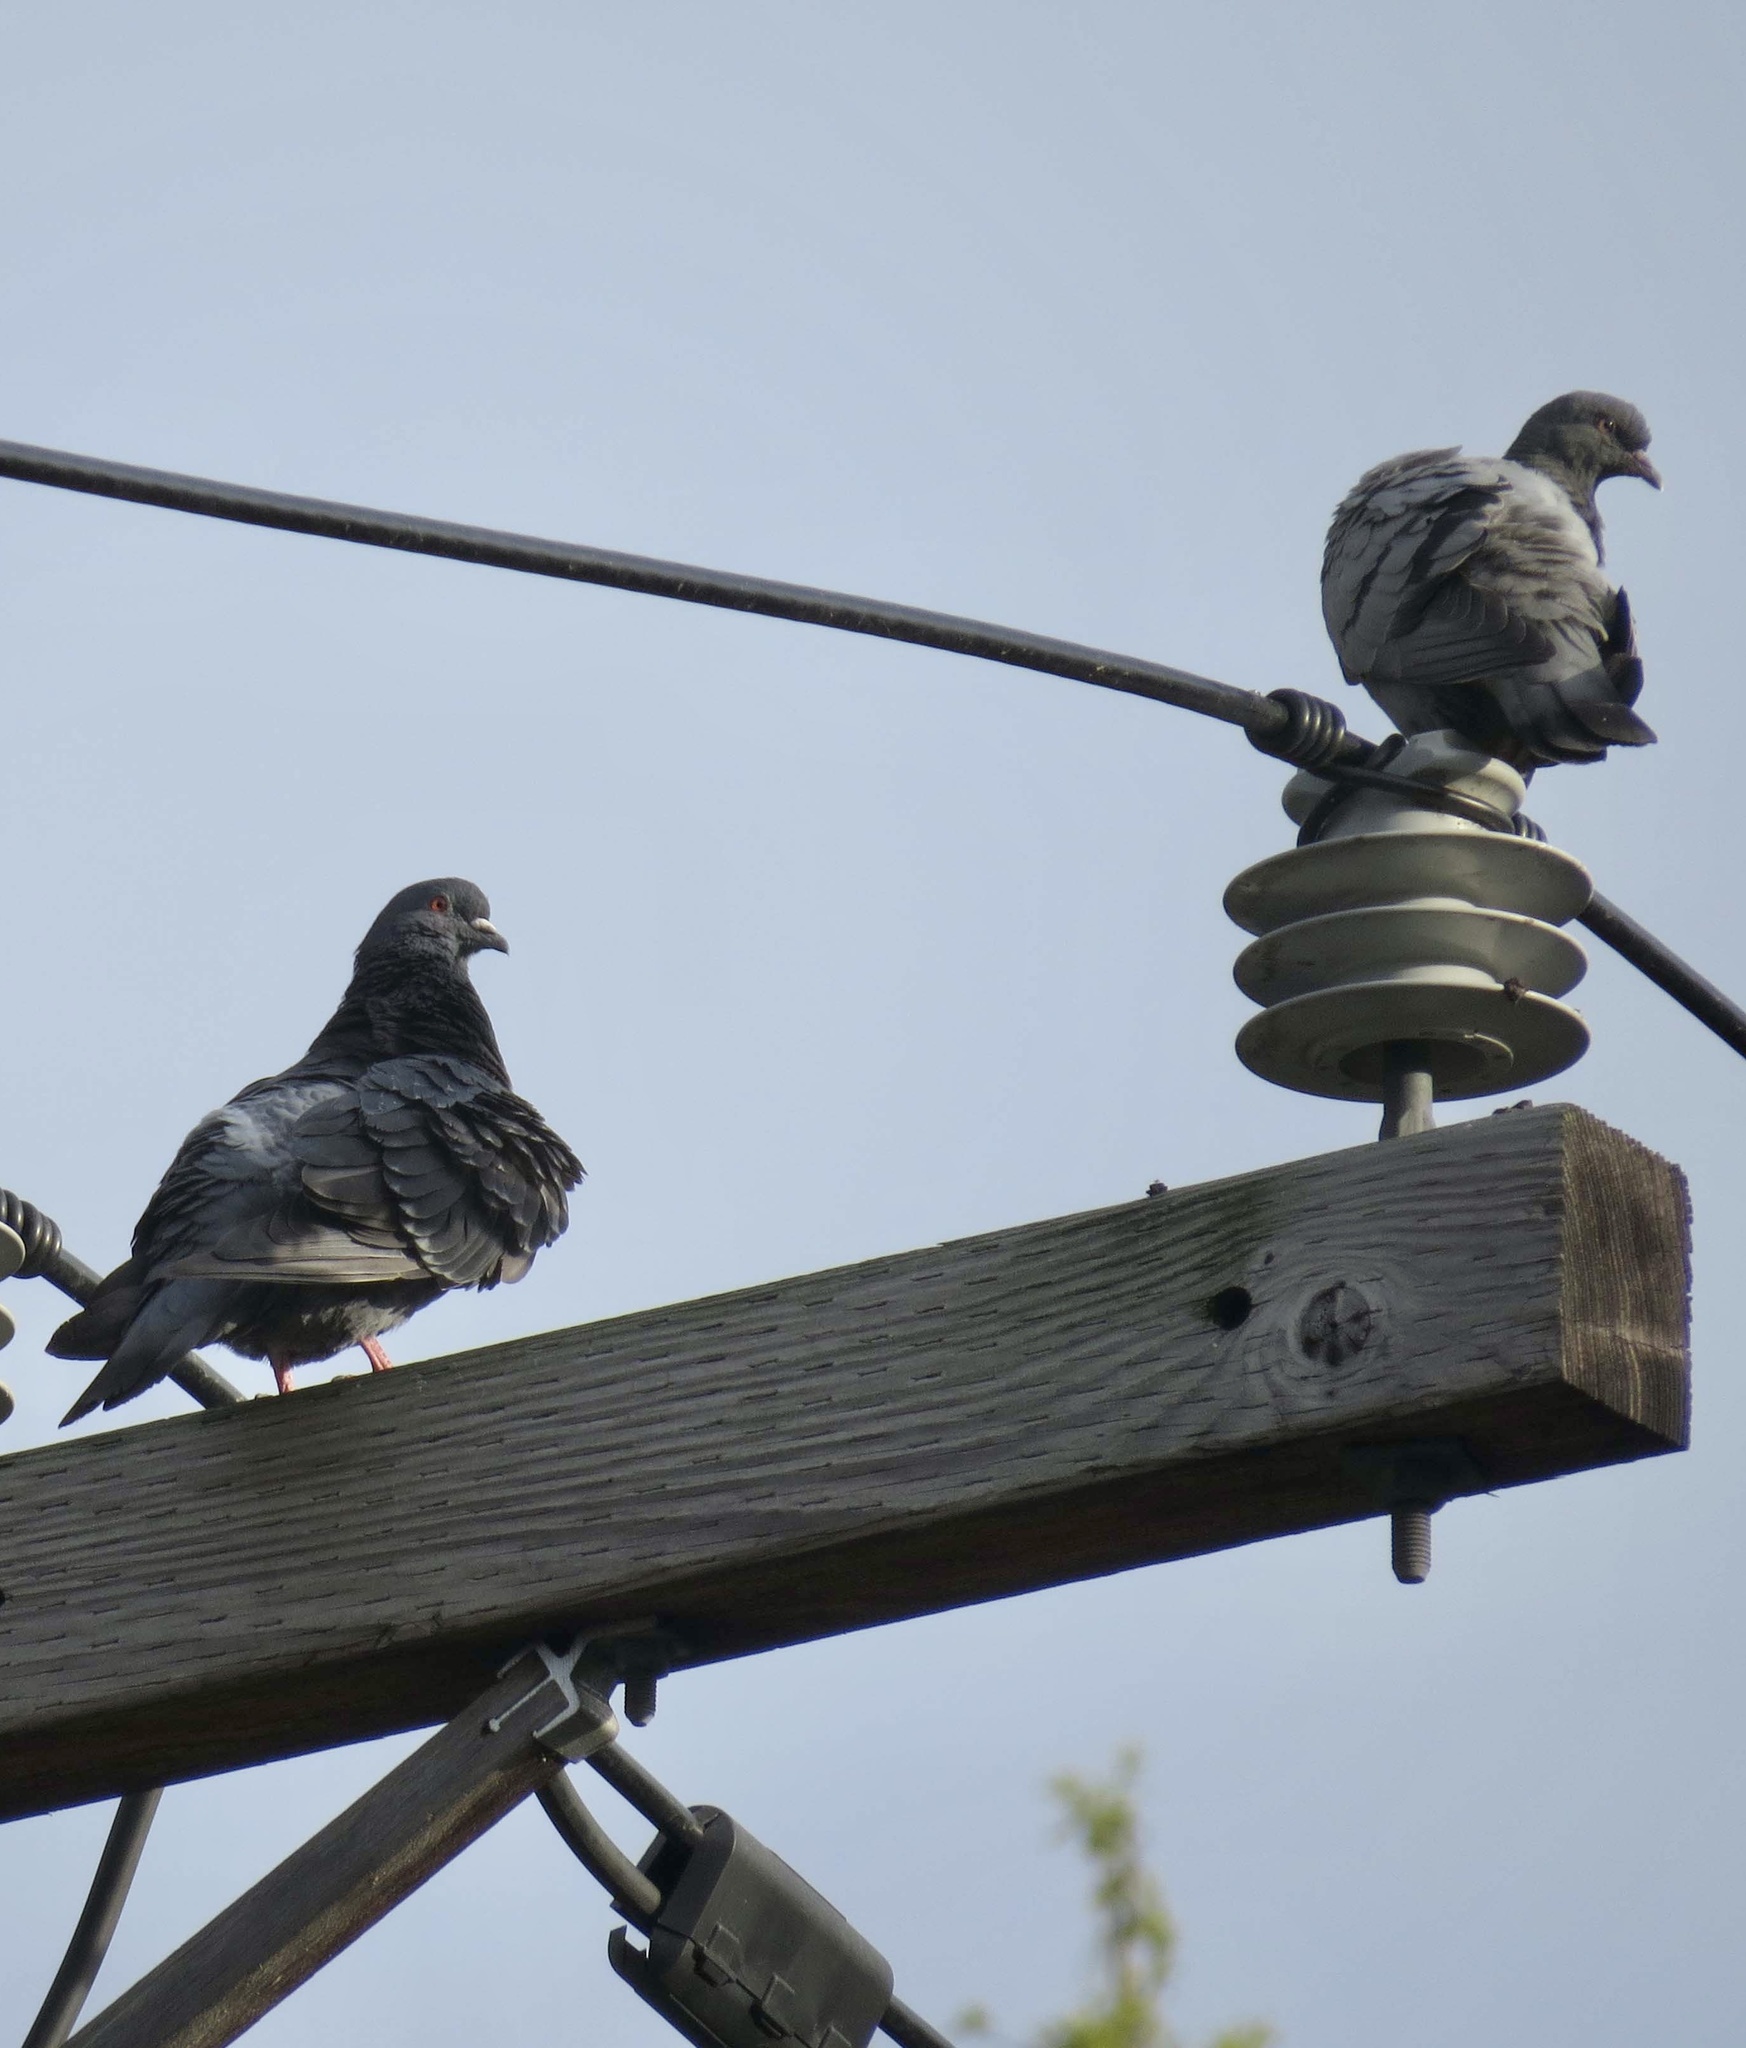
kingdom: Animalia
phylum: Chordata
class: Aves
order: Columbiformes
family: Columbidae
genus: Columba
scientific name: Columba livia
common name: Rock pigeon
